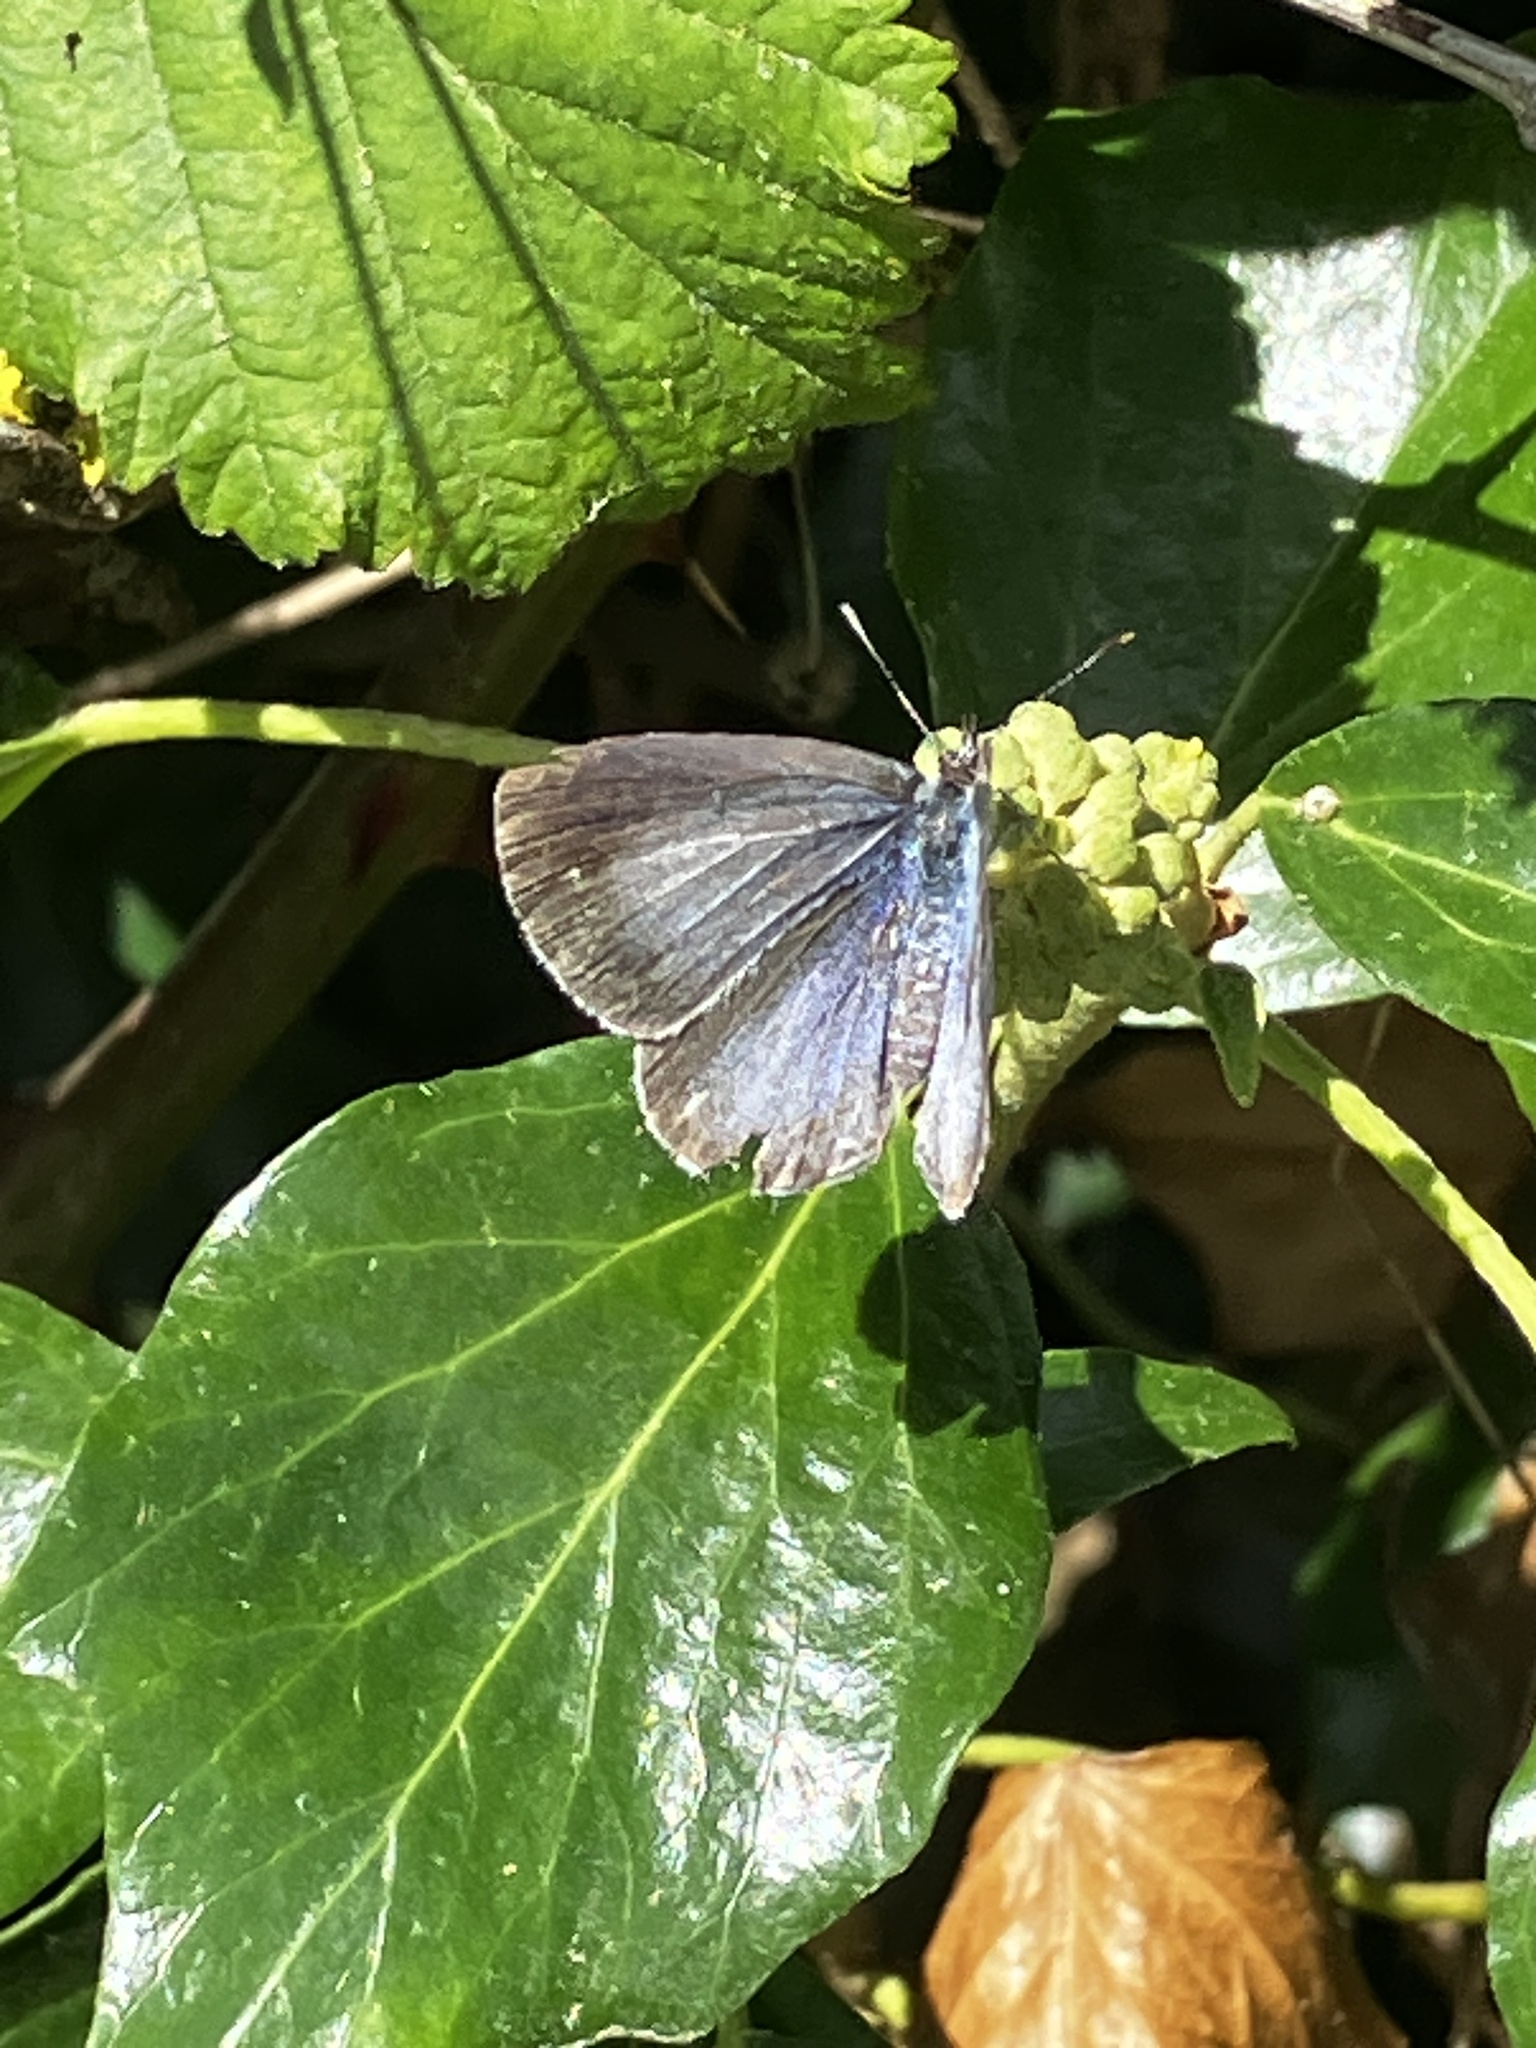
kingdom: Animalia
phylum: Arthropoda
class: Insecta
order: Lepidoptera
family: Lycaenidae
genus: Celastrina
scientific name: Celastrina argiolus
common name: Holly blue
